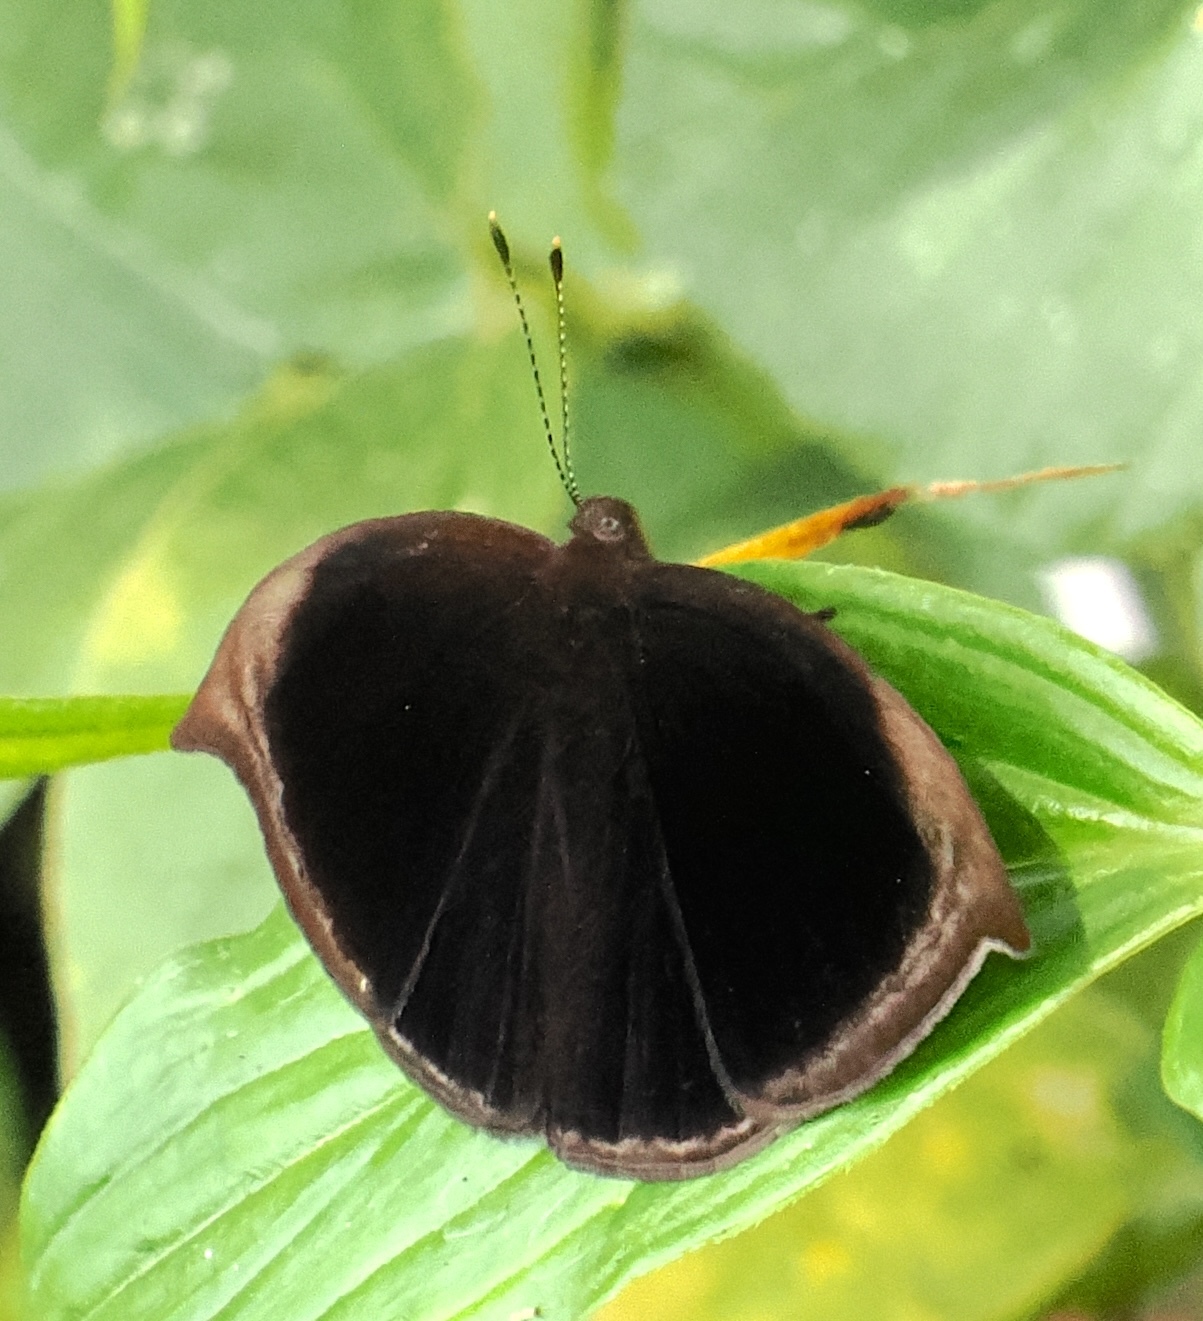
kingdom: Animalia
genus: Mesosemia
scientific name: Mesosemia acuta
